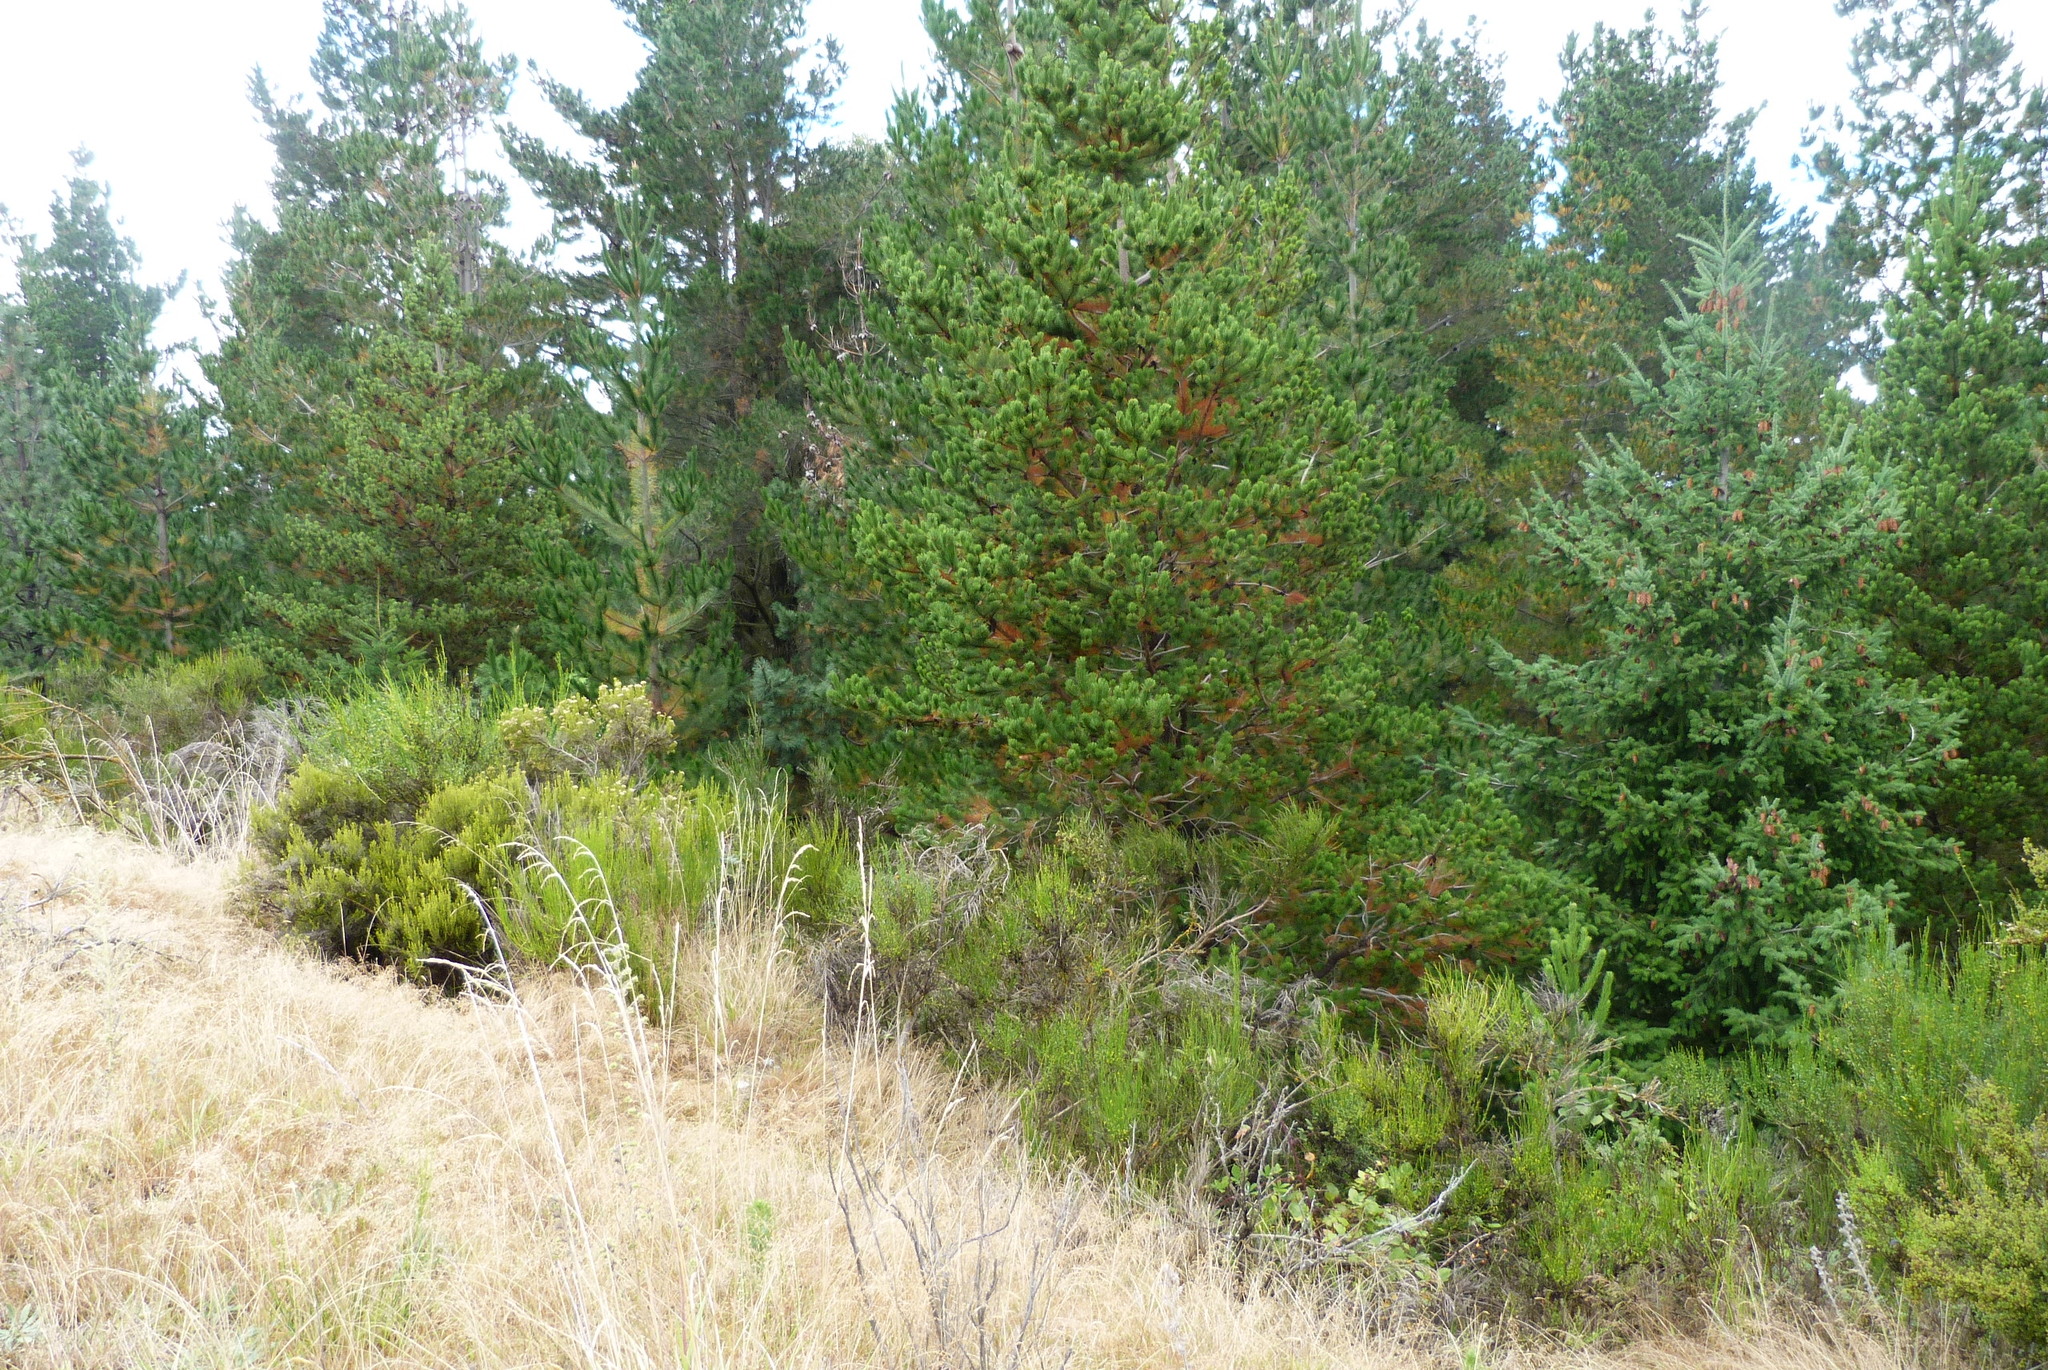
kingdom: Plantae
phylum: Tracheophyta
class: Magnoliopsida
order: Asterales
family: Asteraceae
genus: Ozothamnus
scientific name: Ozothamnus leptophyllus
